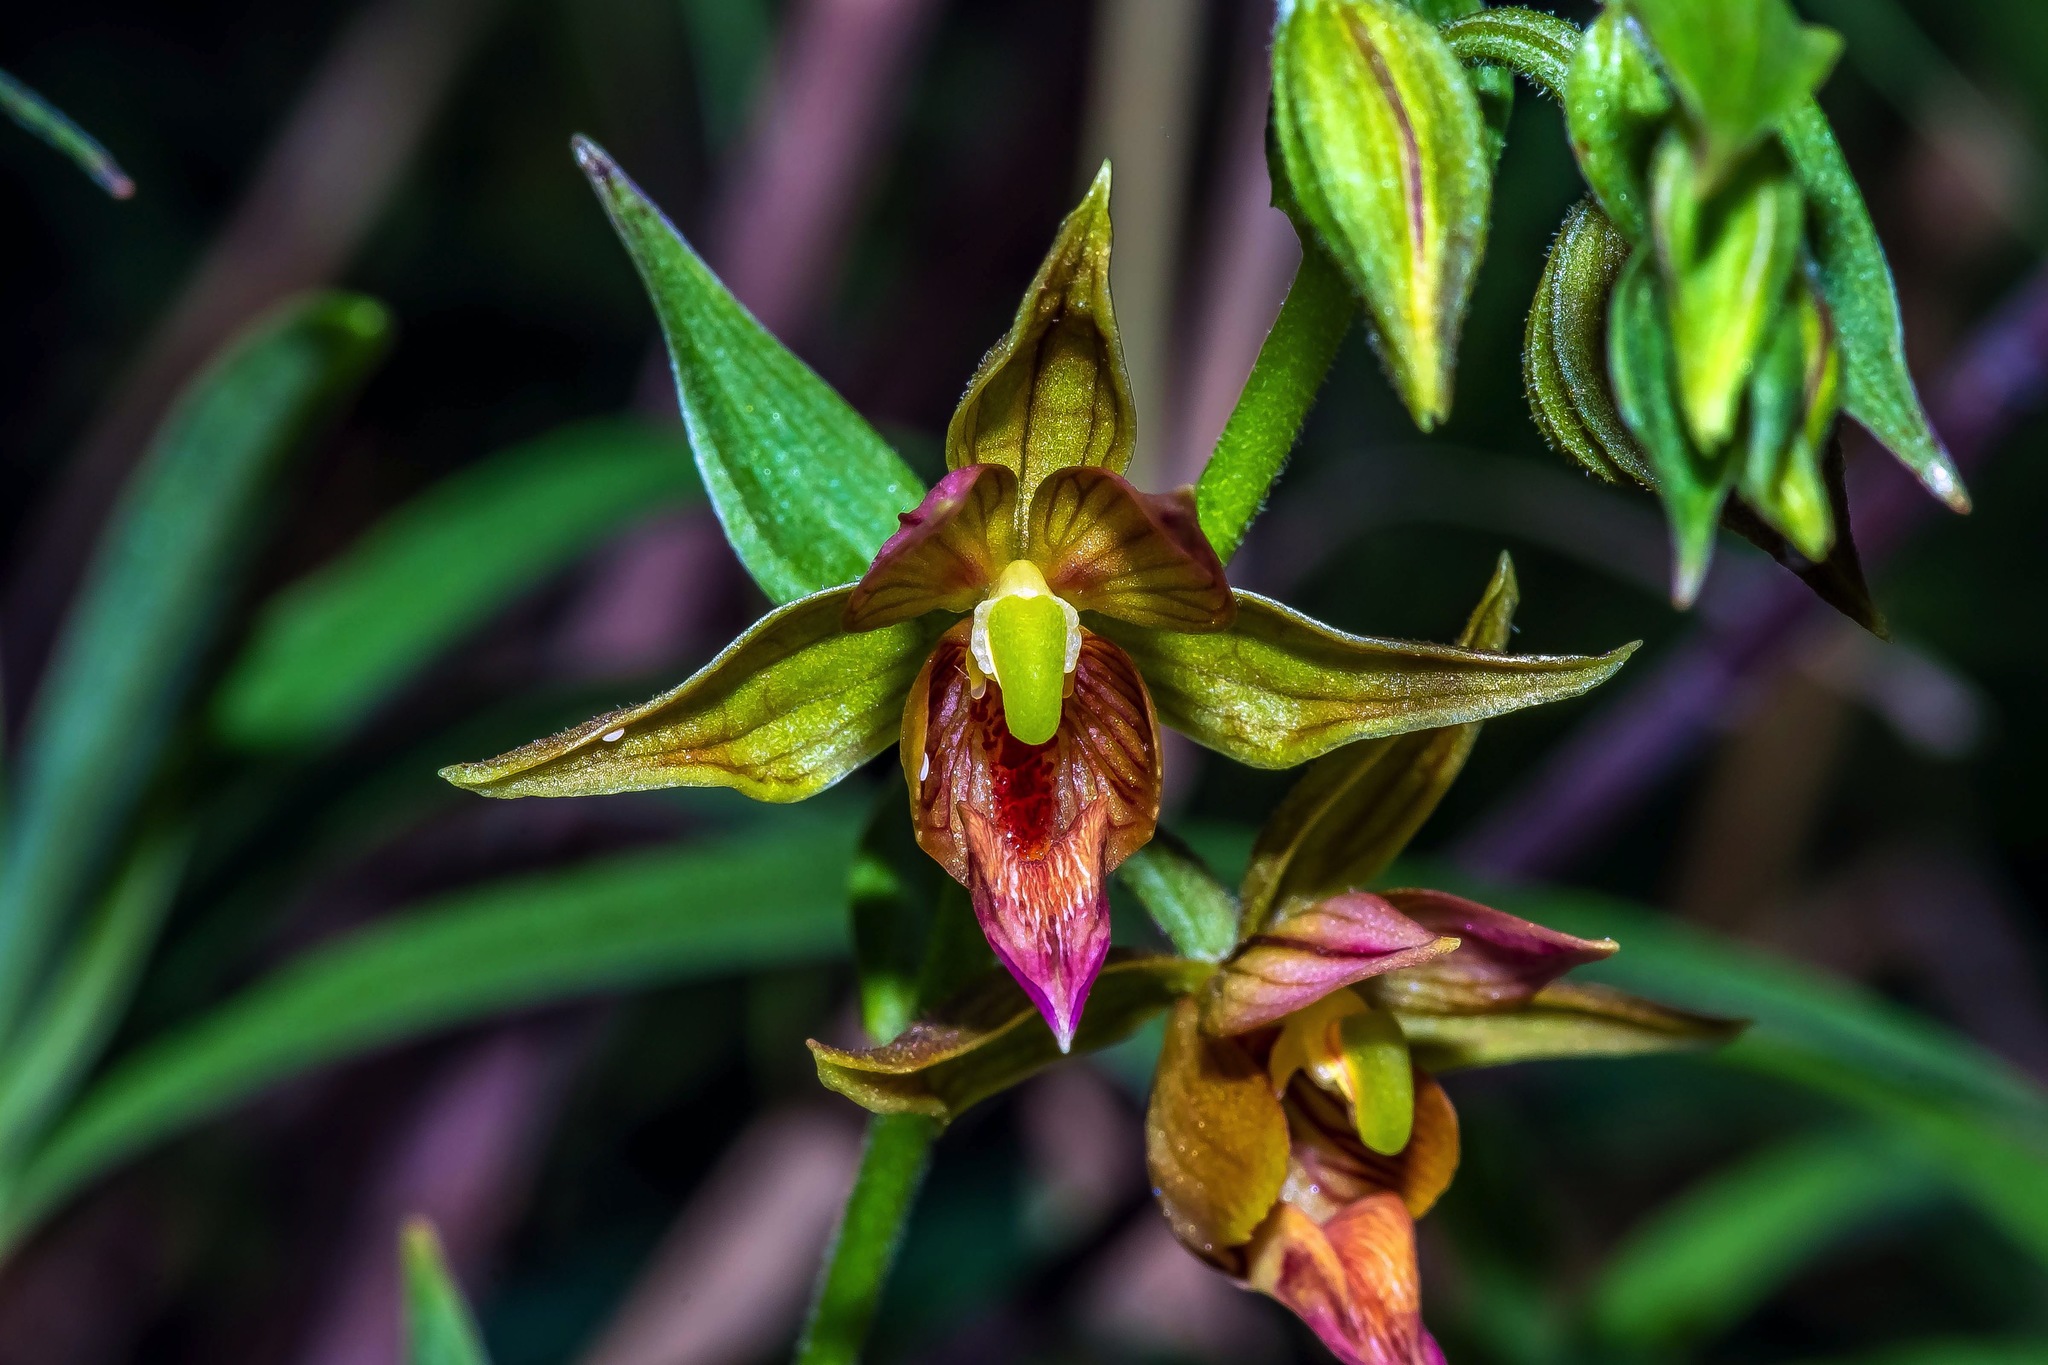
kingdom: Plantae
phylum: Tracheophyta
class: Liliopsida
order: Asparagales
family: Orchidaceae
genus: Epipactis
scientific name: Epipactis gigantea
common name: Chatterbox
